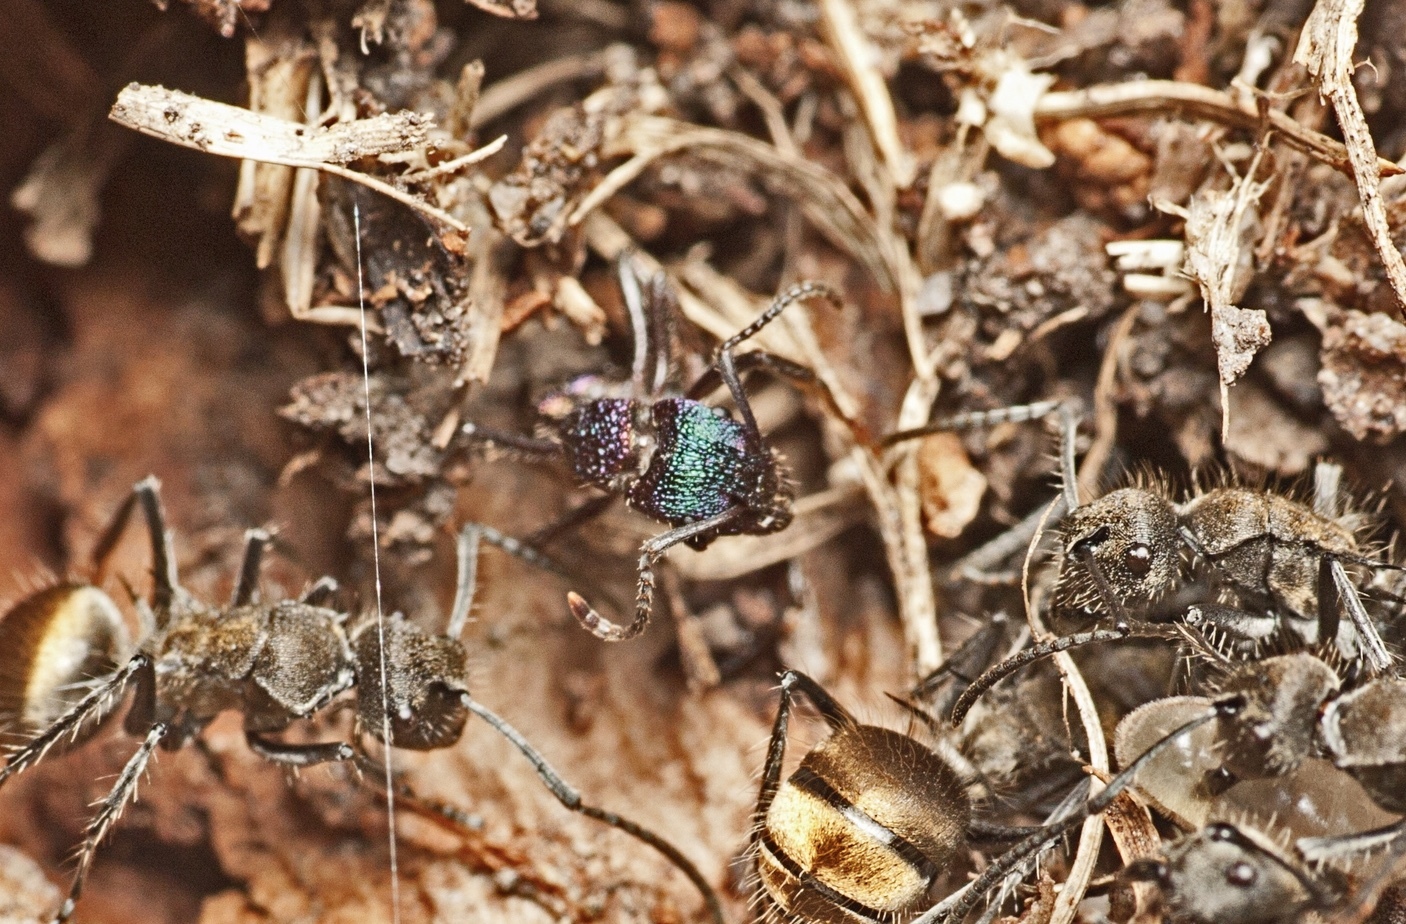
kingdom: Animalia
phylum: Arthropoda
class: Insecta
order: Hymenoptera
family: Formicidae
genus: Rhytidoponera
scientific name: Rhytidoponera metallica
